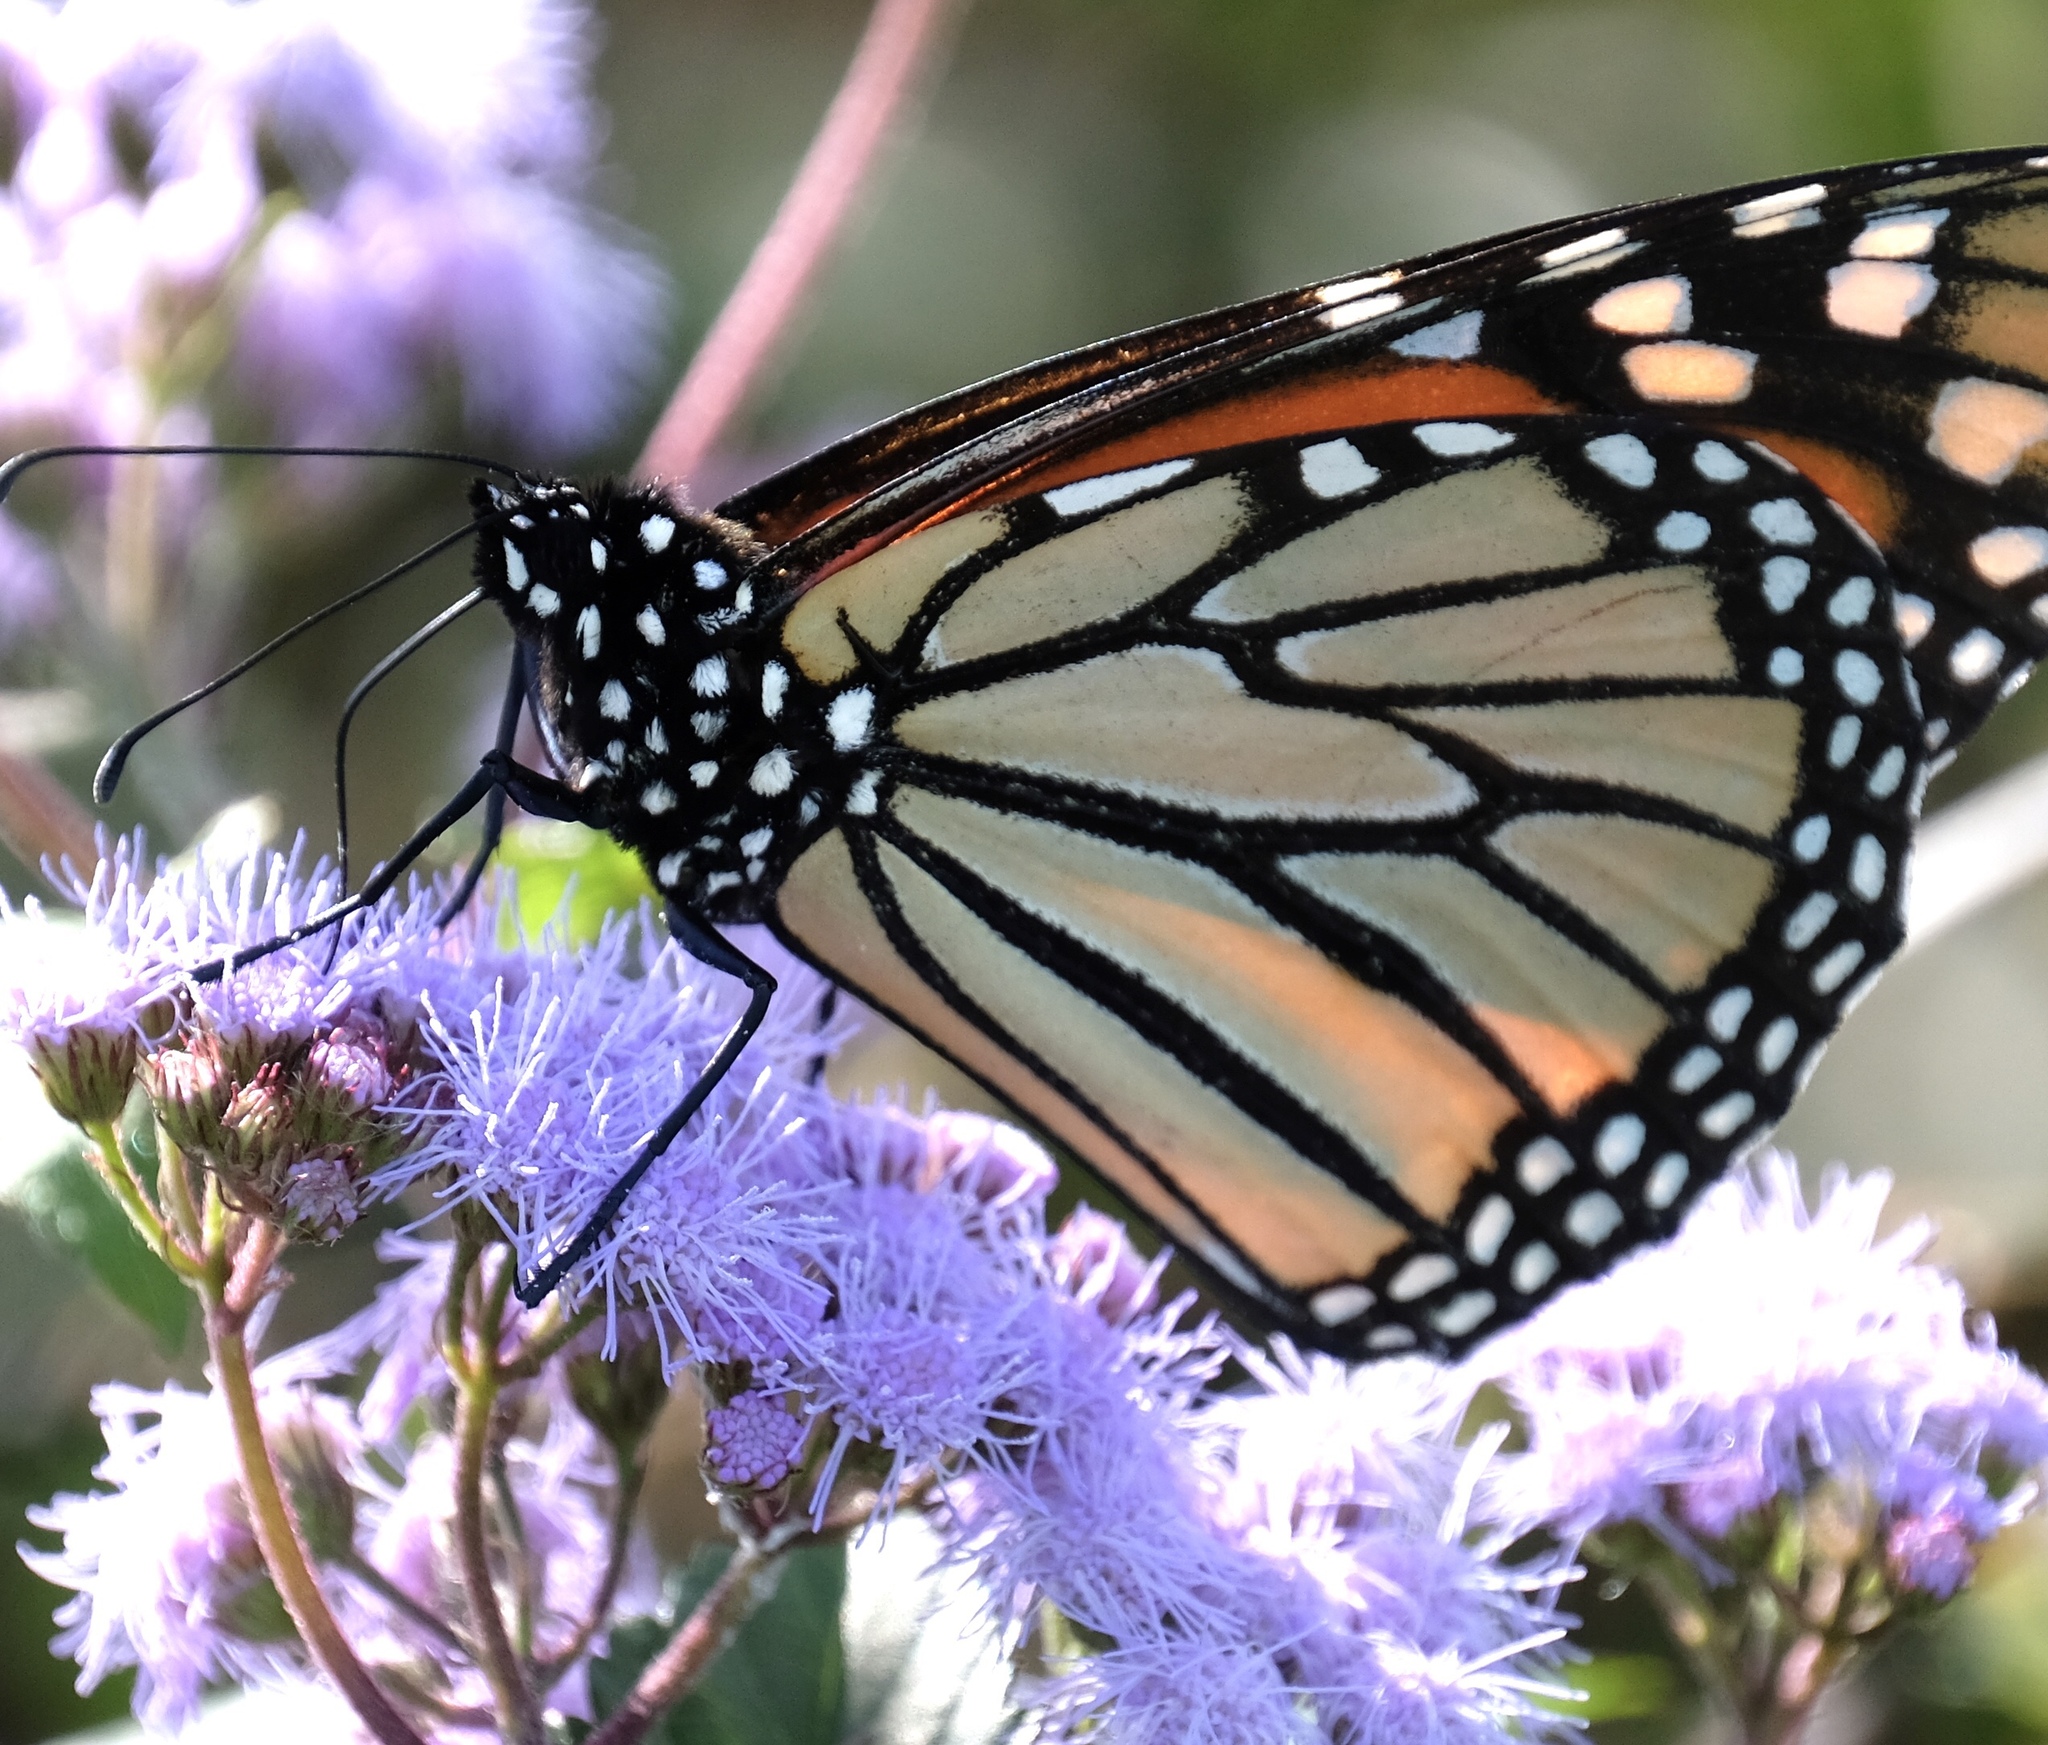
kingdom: Animalia
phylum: Arthropoda
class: Insecta
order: Lepidoptera
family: Nymphalidae
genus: Danaus
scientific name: Danaus plexippus
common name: Monarch
